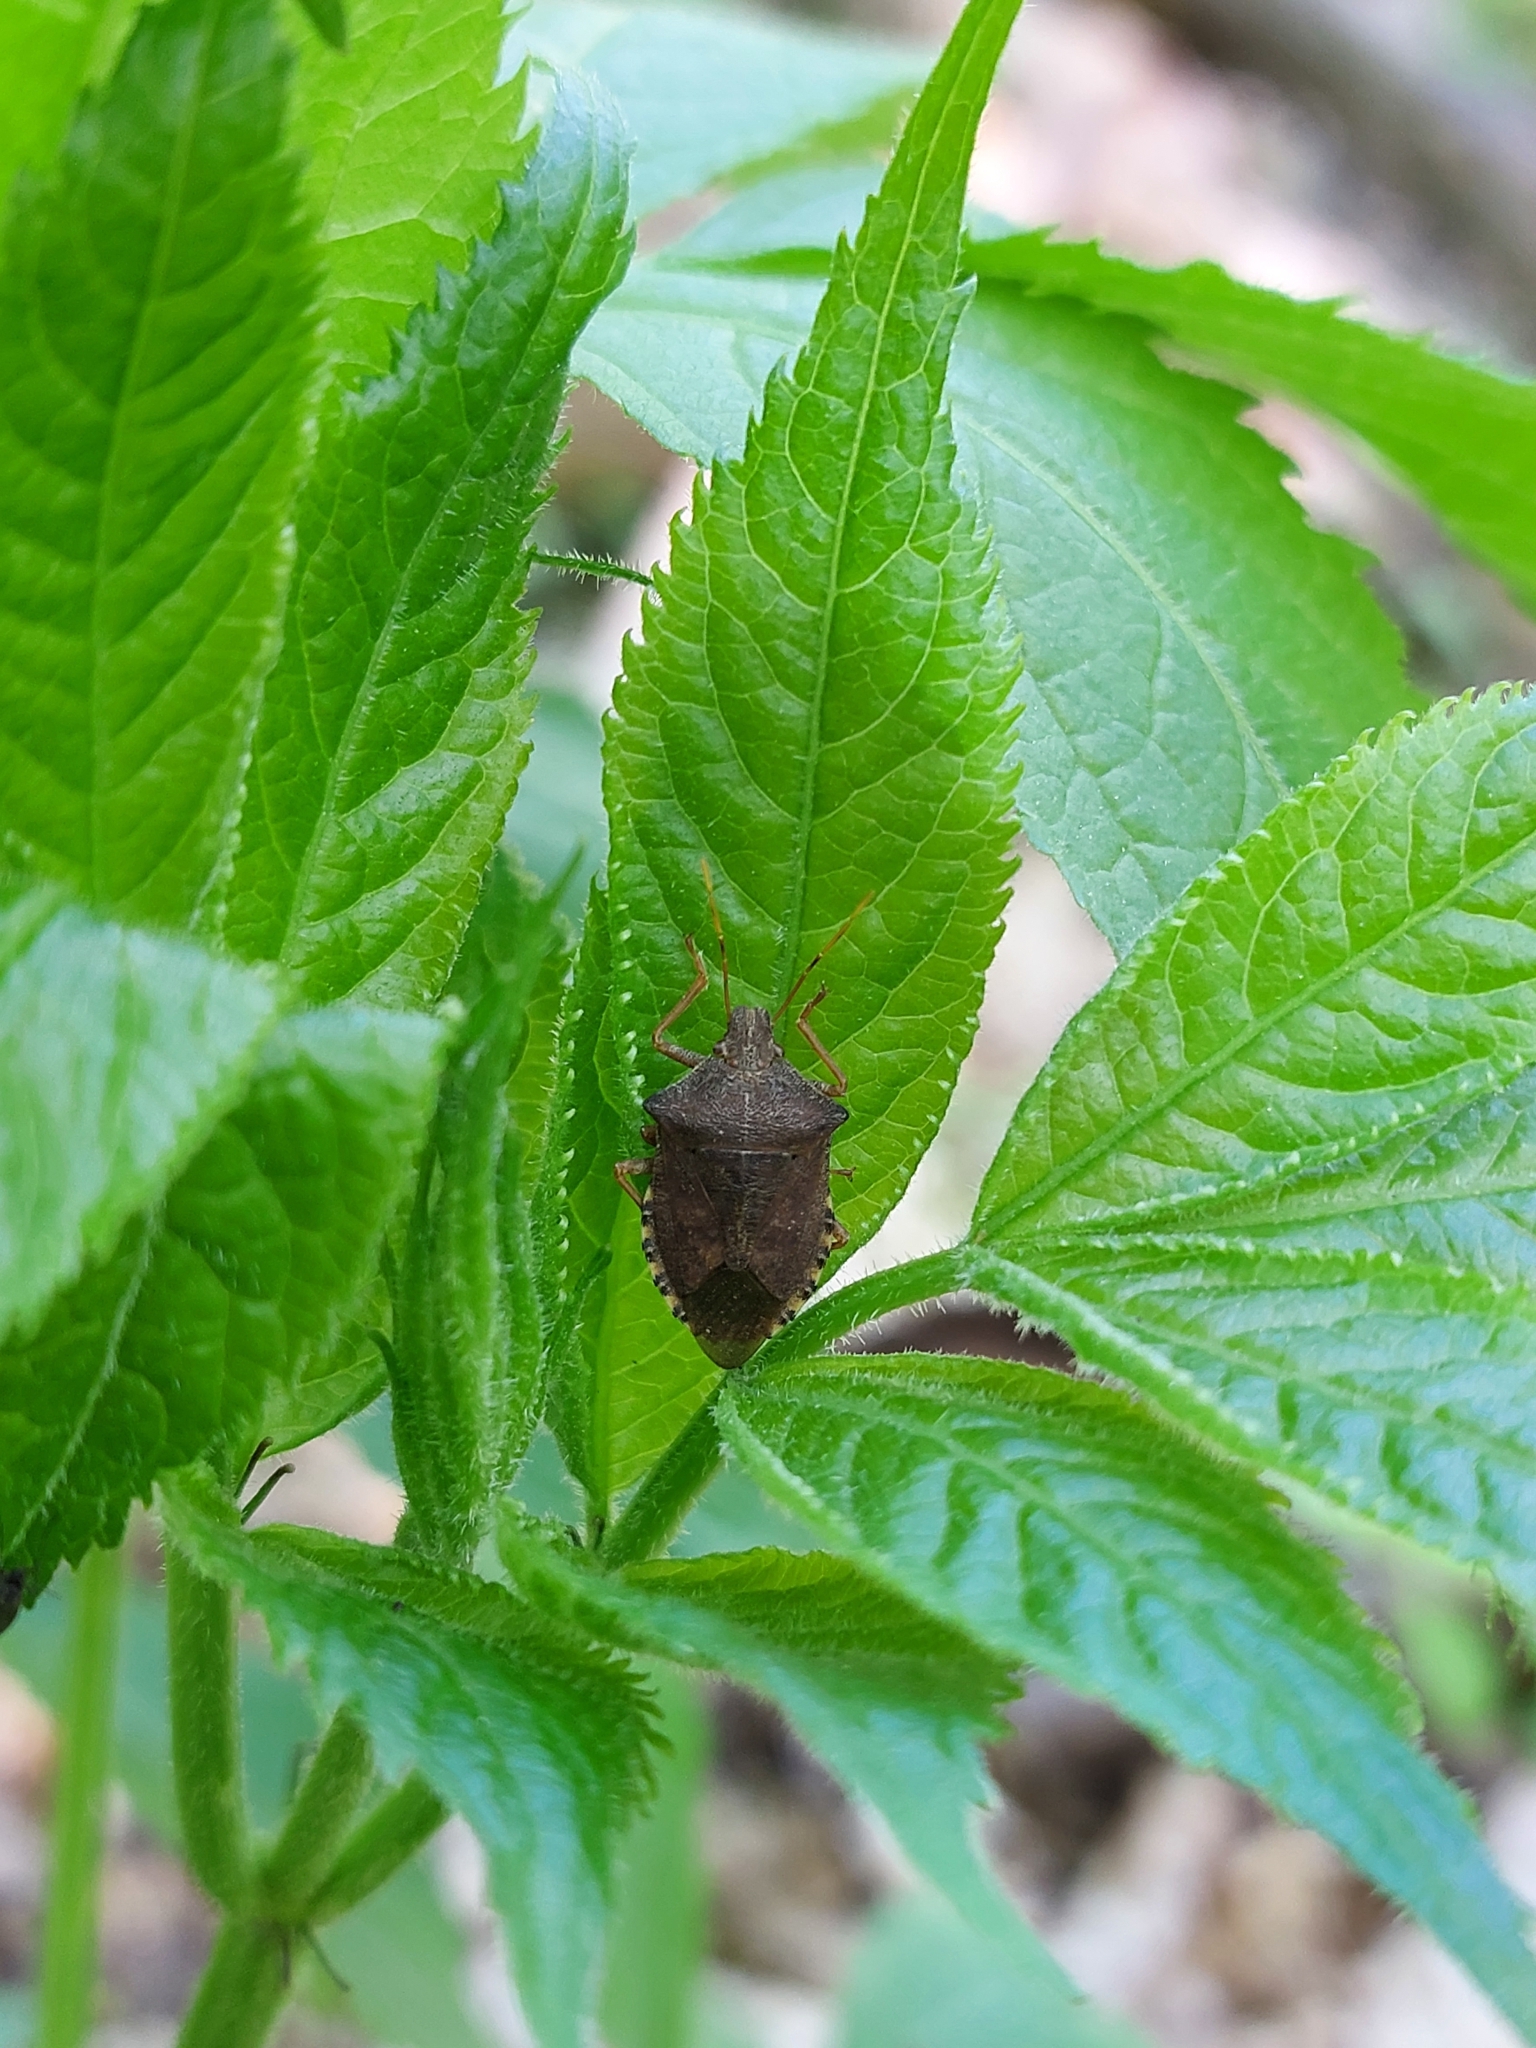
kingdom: Animalia
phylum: Arthropoda
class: Insecta
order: Hemiptera
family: Pentatomidae
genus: Arma
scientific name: Arma custos
